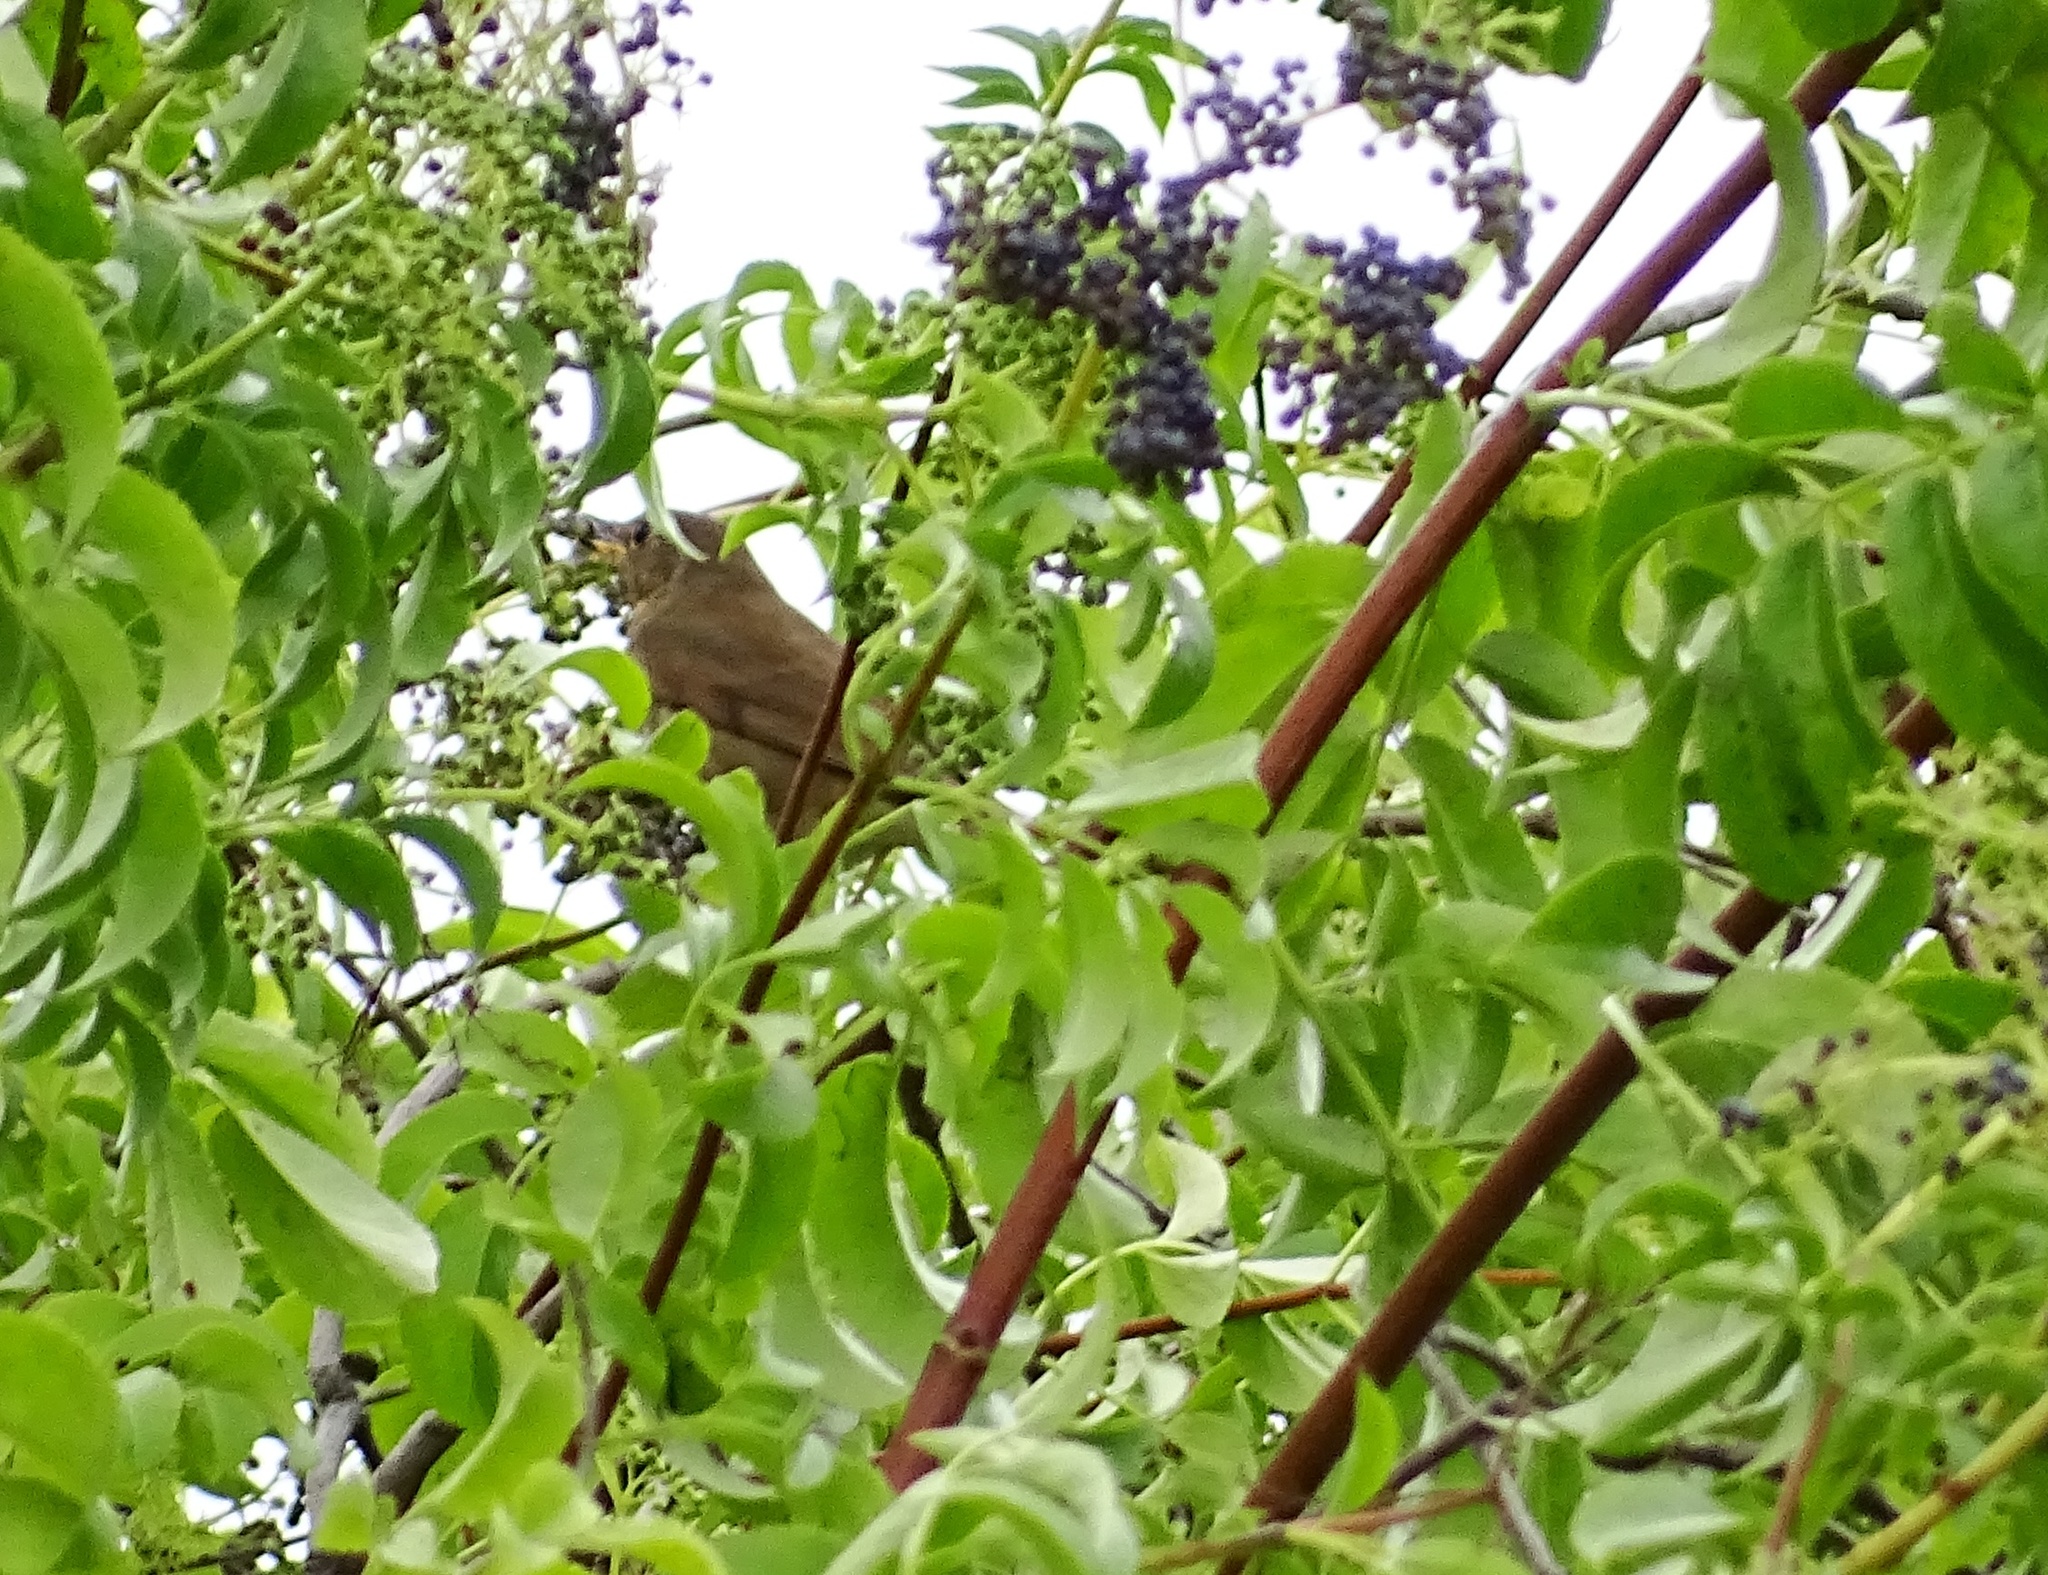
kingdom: Animalia
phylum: Chordata
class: Aves
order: Passeriformes
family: Turdidae
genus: Catharus
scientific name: Catharus ustulatus
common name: Swainson's thrush
